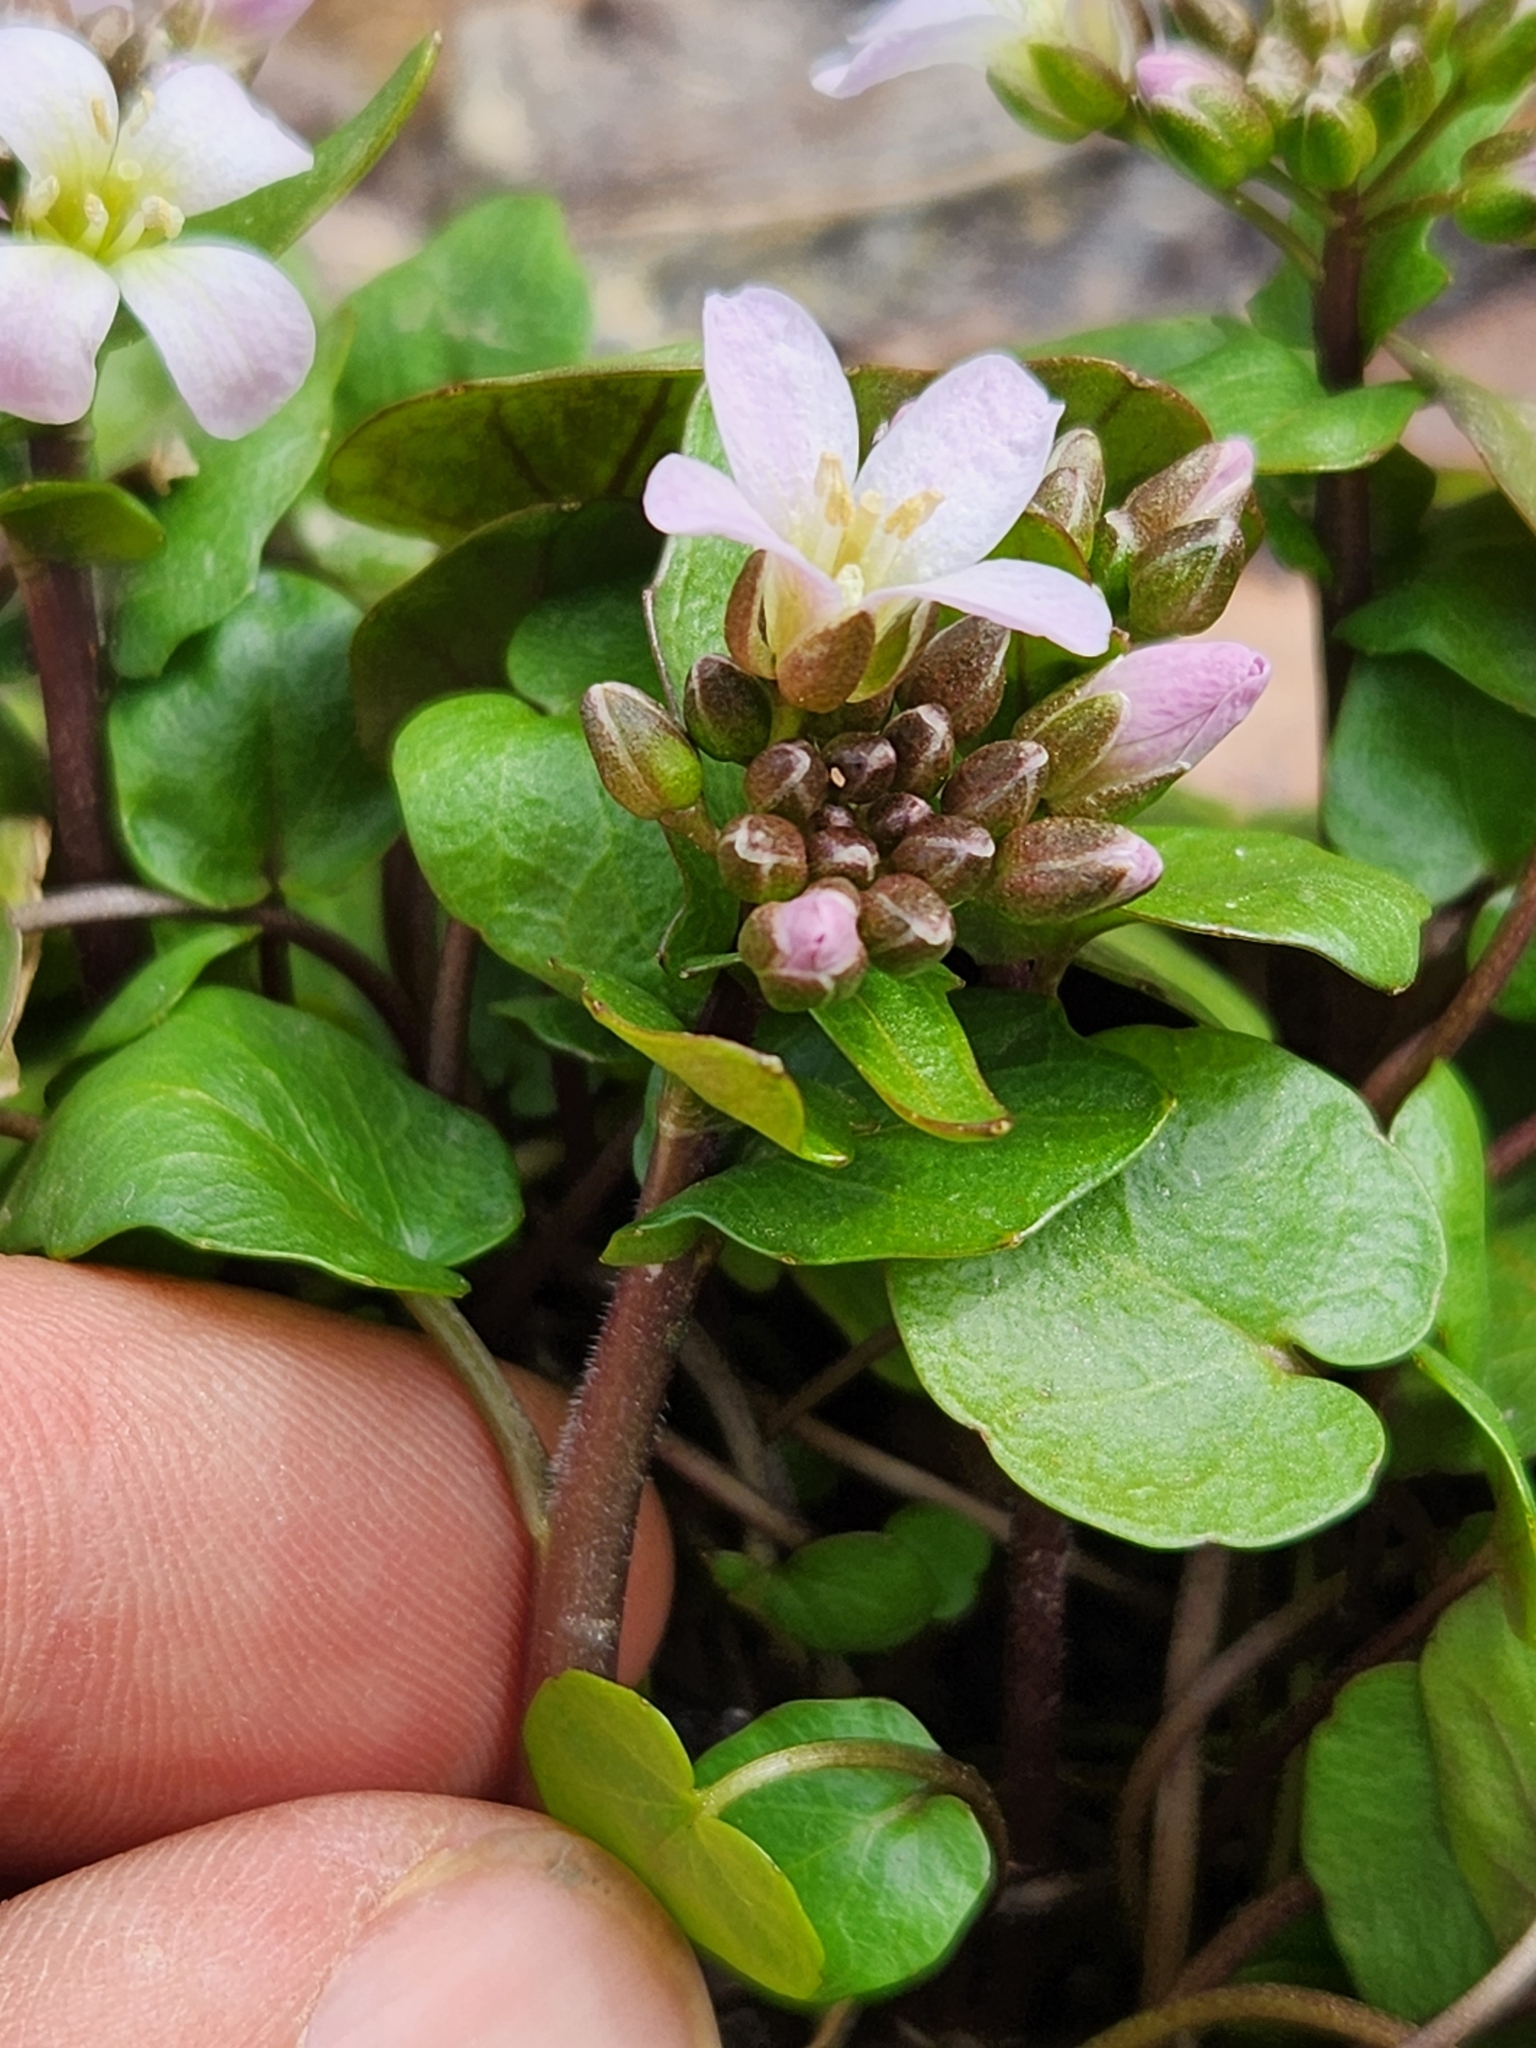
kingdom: Plantae
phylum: Tracheophyta
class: Magnoliopsida
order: Brassicales
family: Brassicaceae
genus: Cardamine
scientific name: Cardamine douglassii
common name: Purple cress
